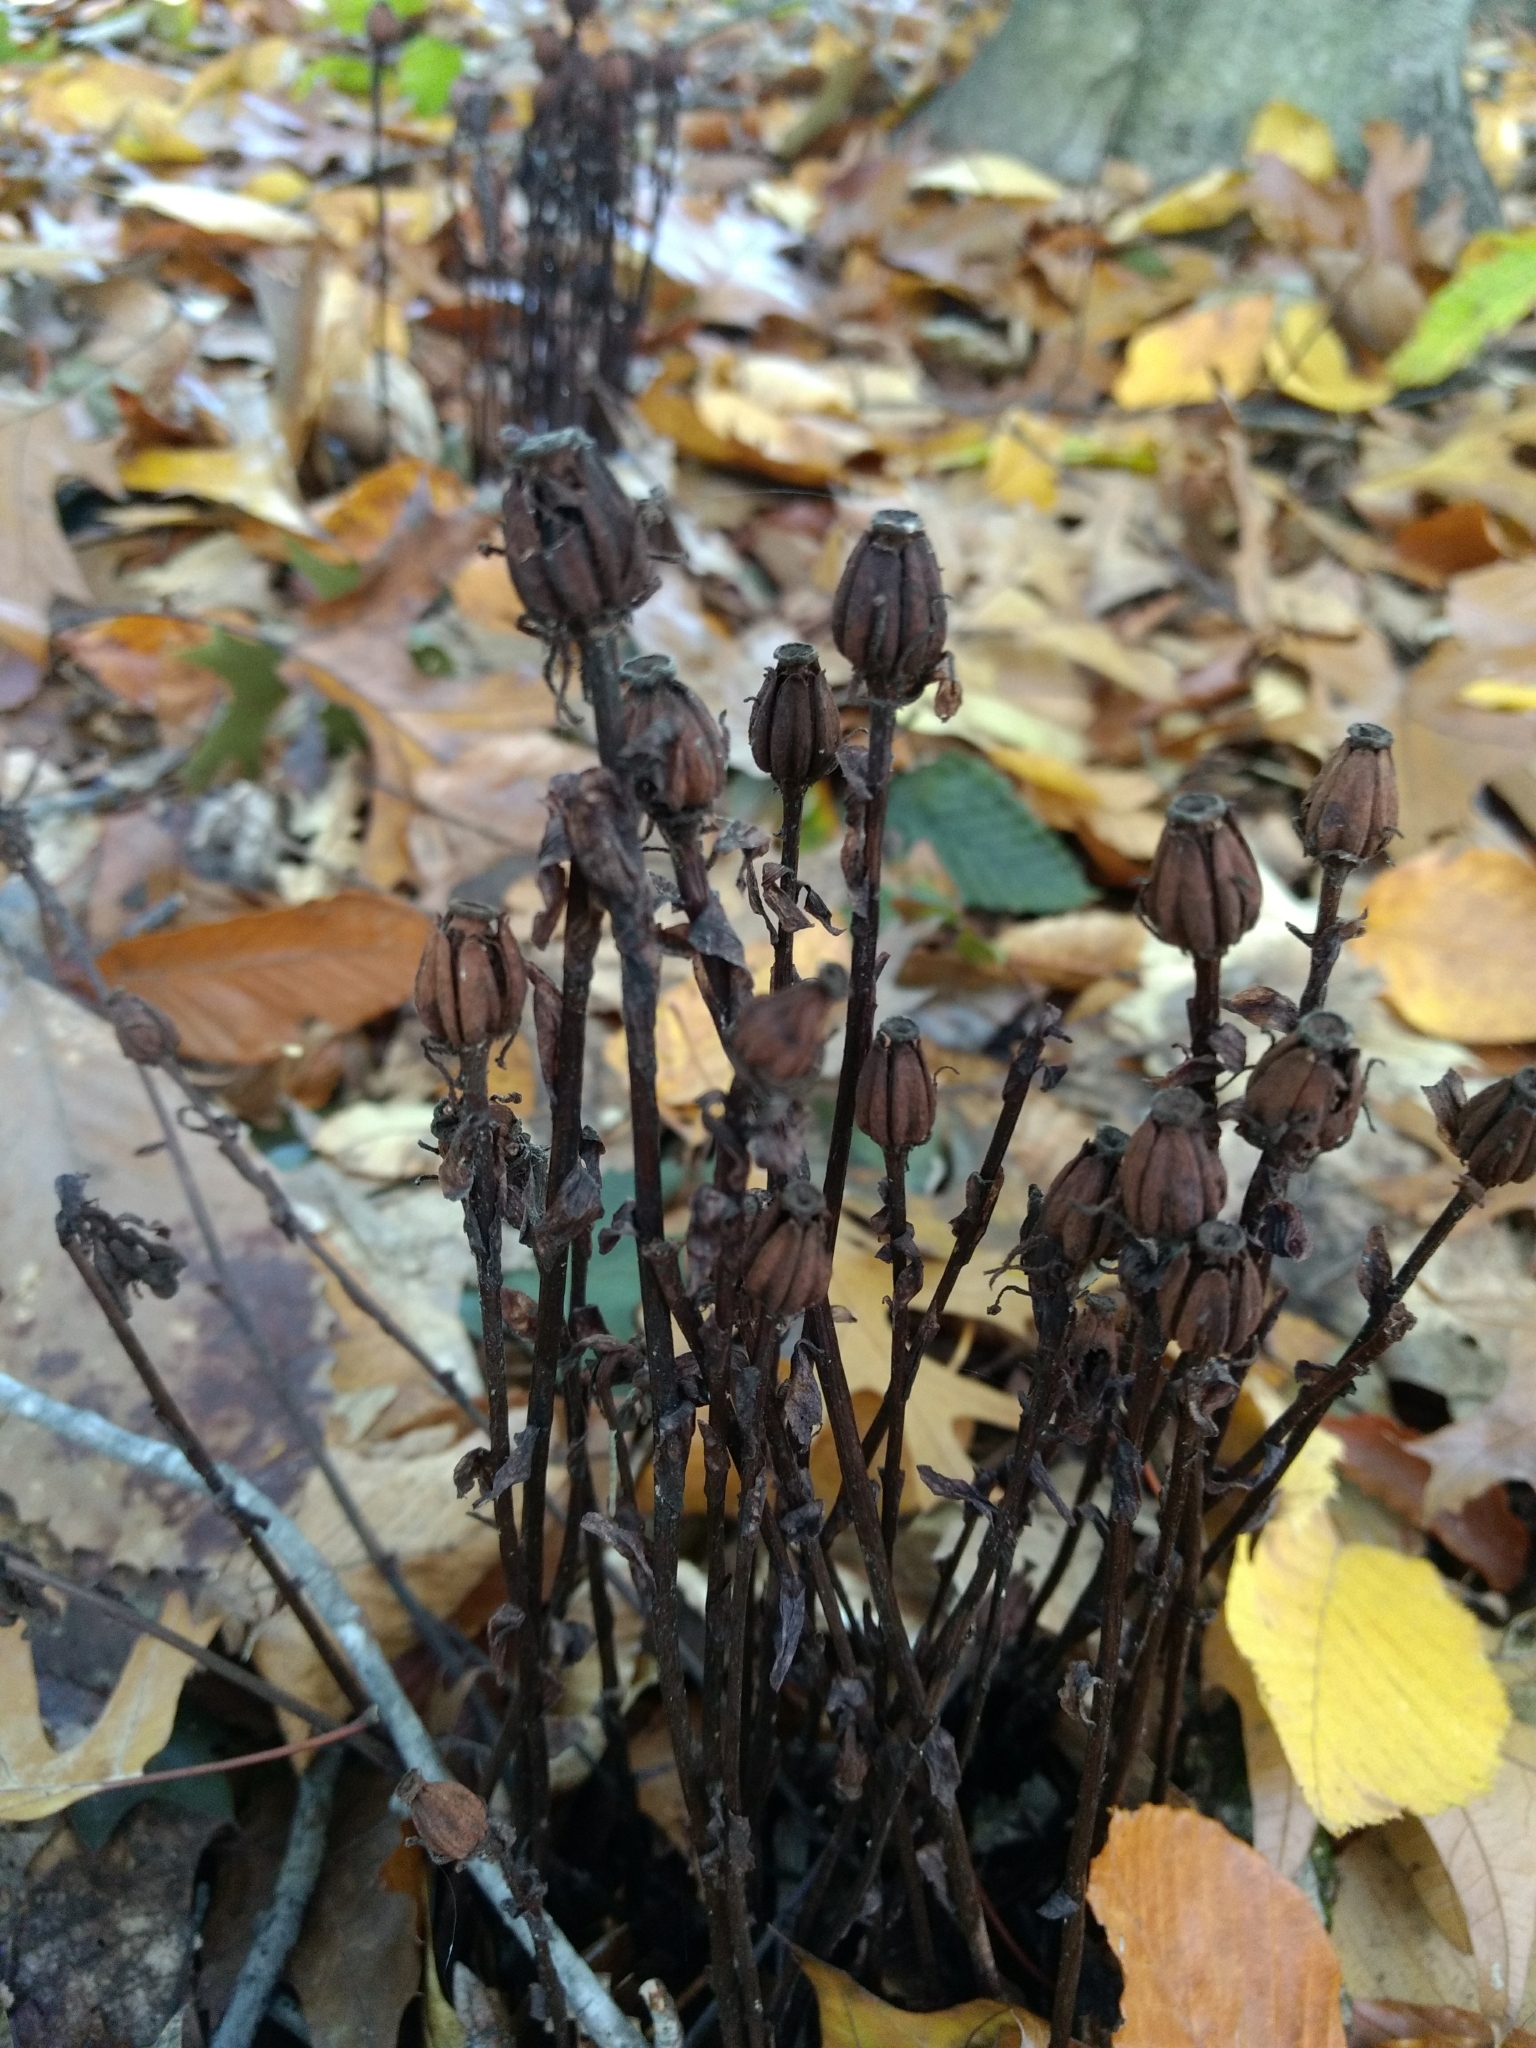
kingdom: Plantae
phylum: Tracheophyta
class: Magnoliopsida
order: Ericales
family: Ericaceae
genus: Monotropa
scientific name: Monotropa uniflora
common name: Convulsion root
